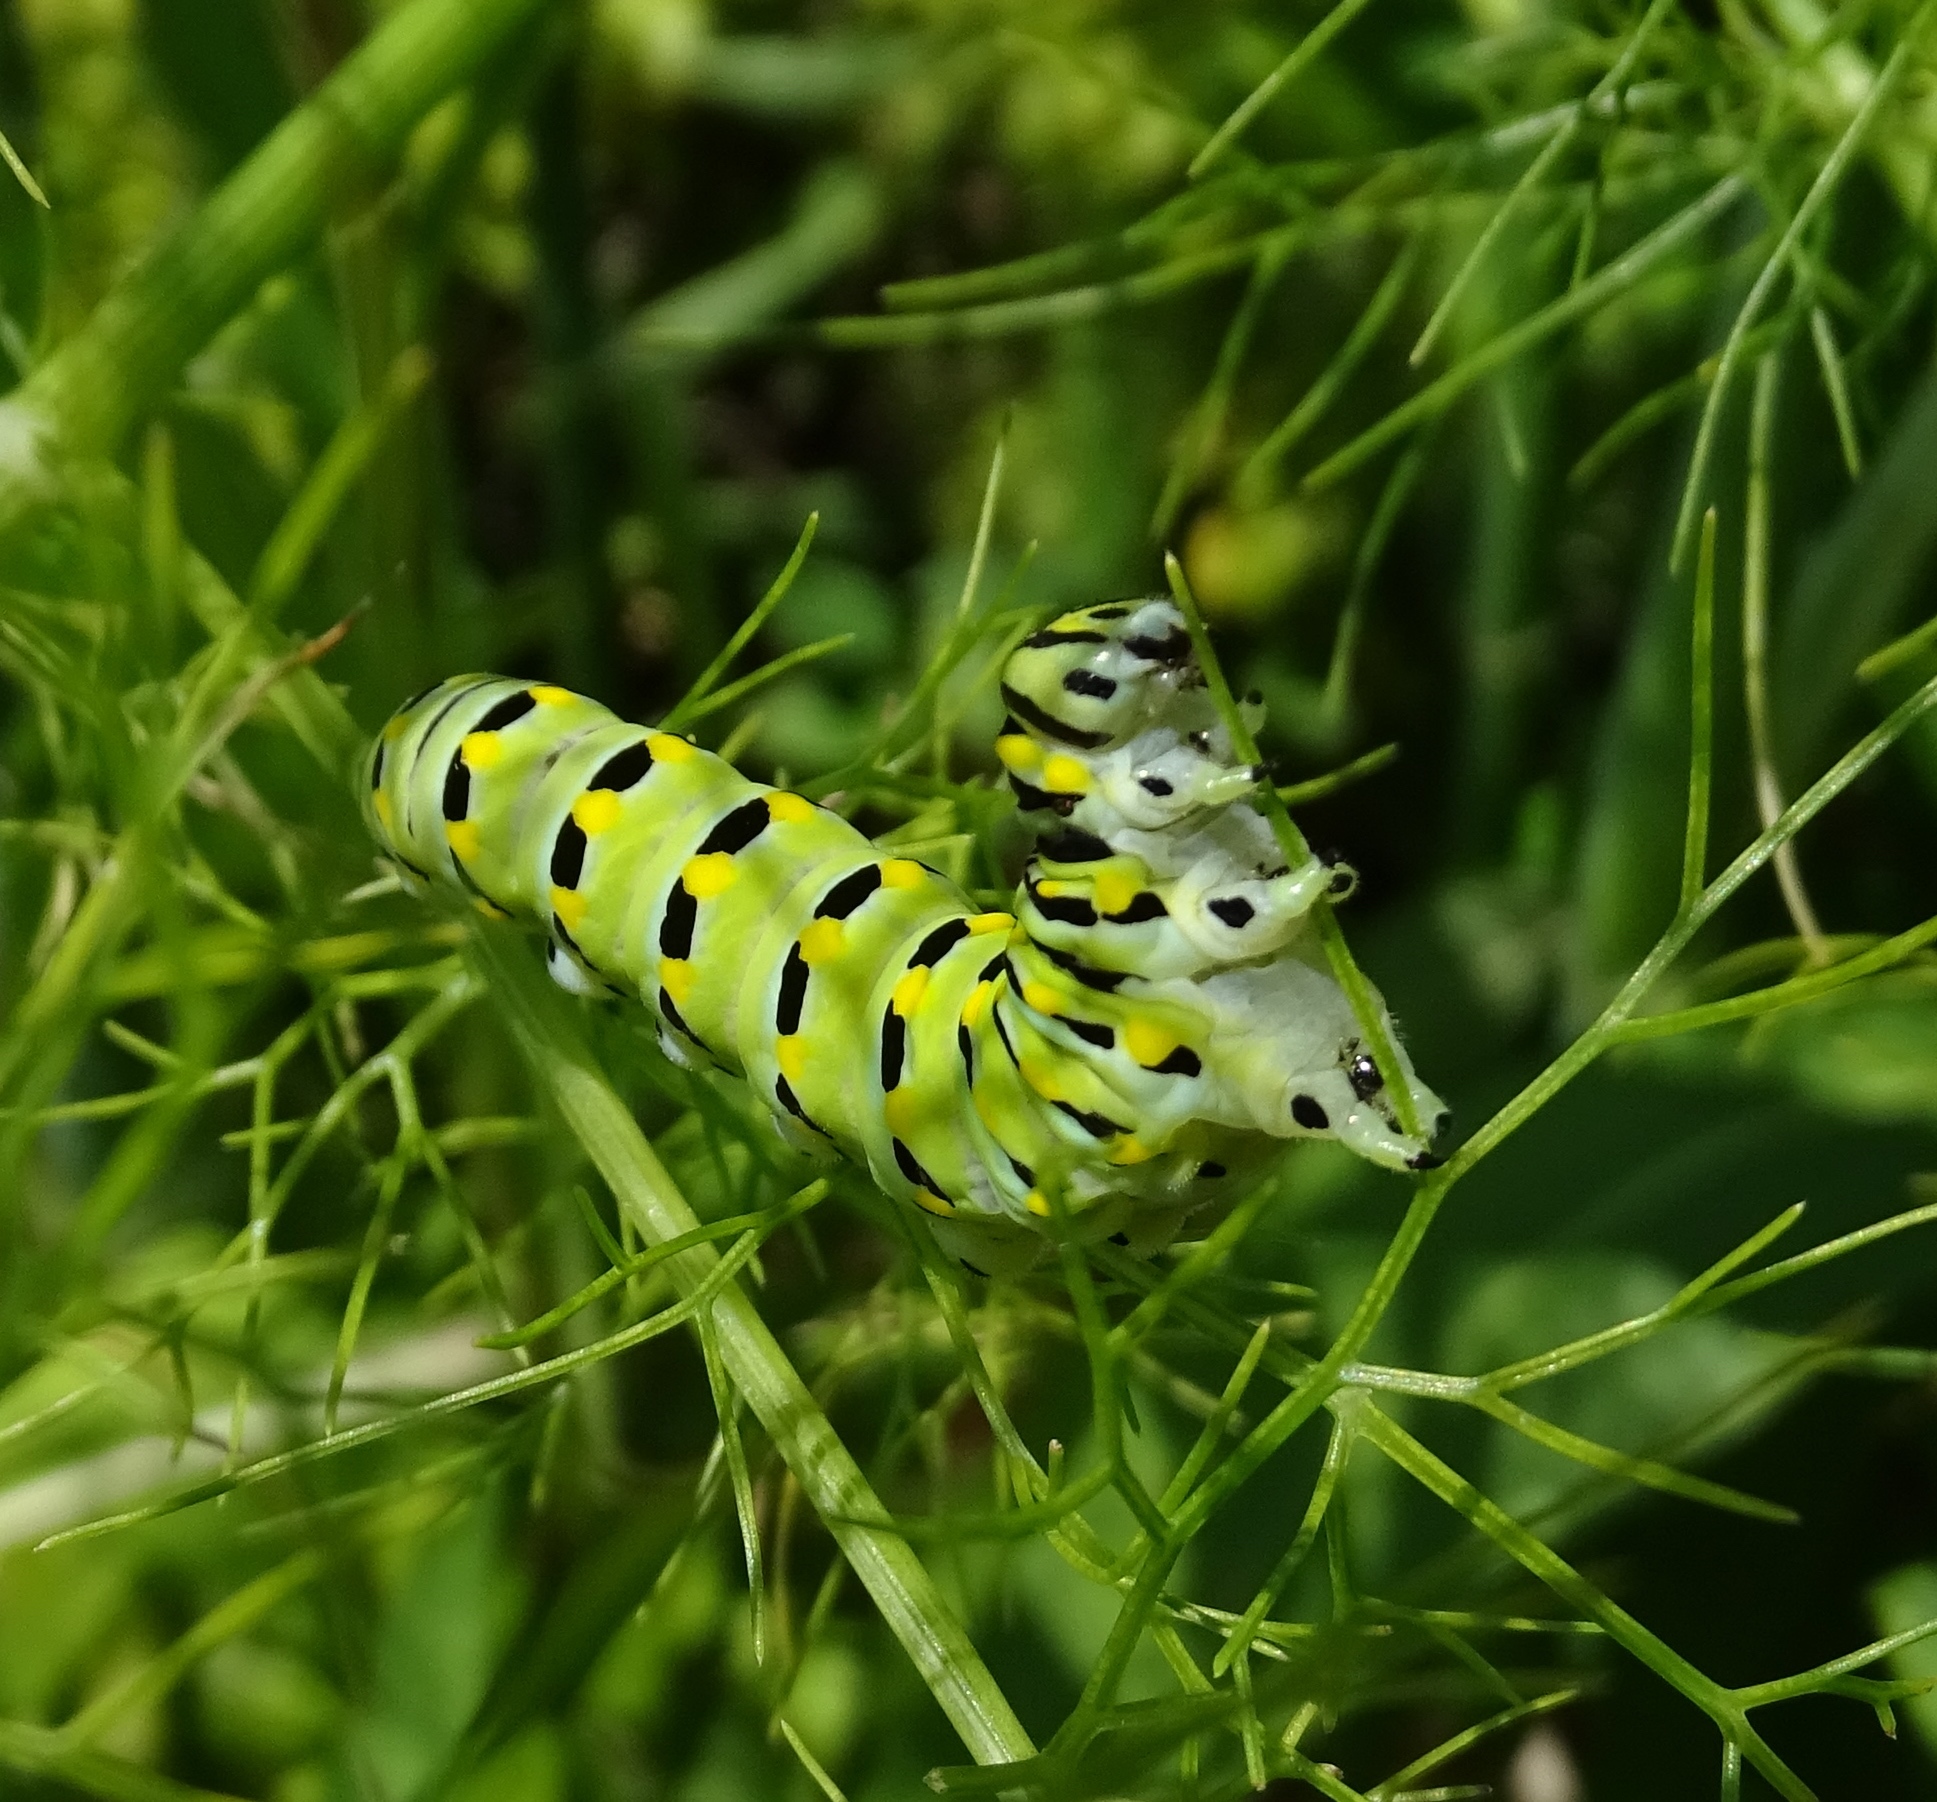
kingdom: Animalia
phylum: Arthropoda
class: Insecta
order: Lepidoptera
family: Papilionidae
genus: Papilio
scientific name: Papilio polyxenes
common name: Black swallowtail
